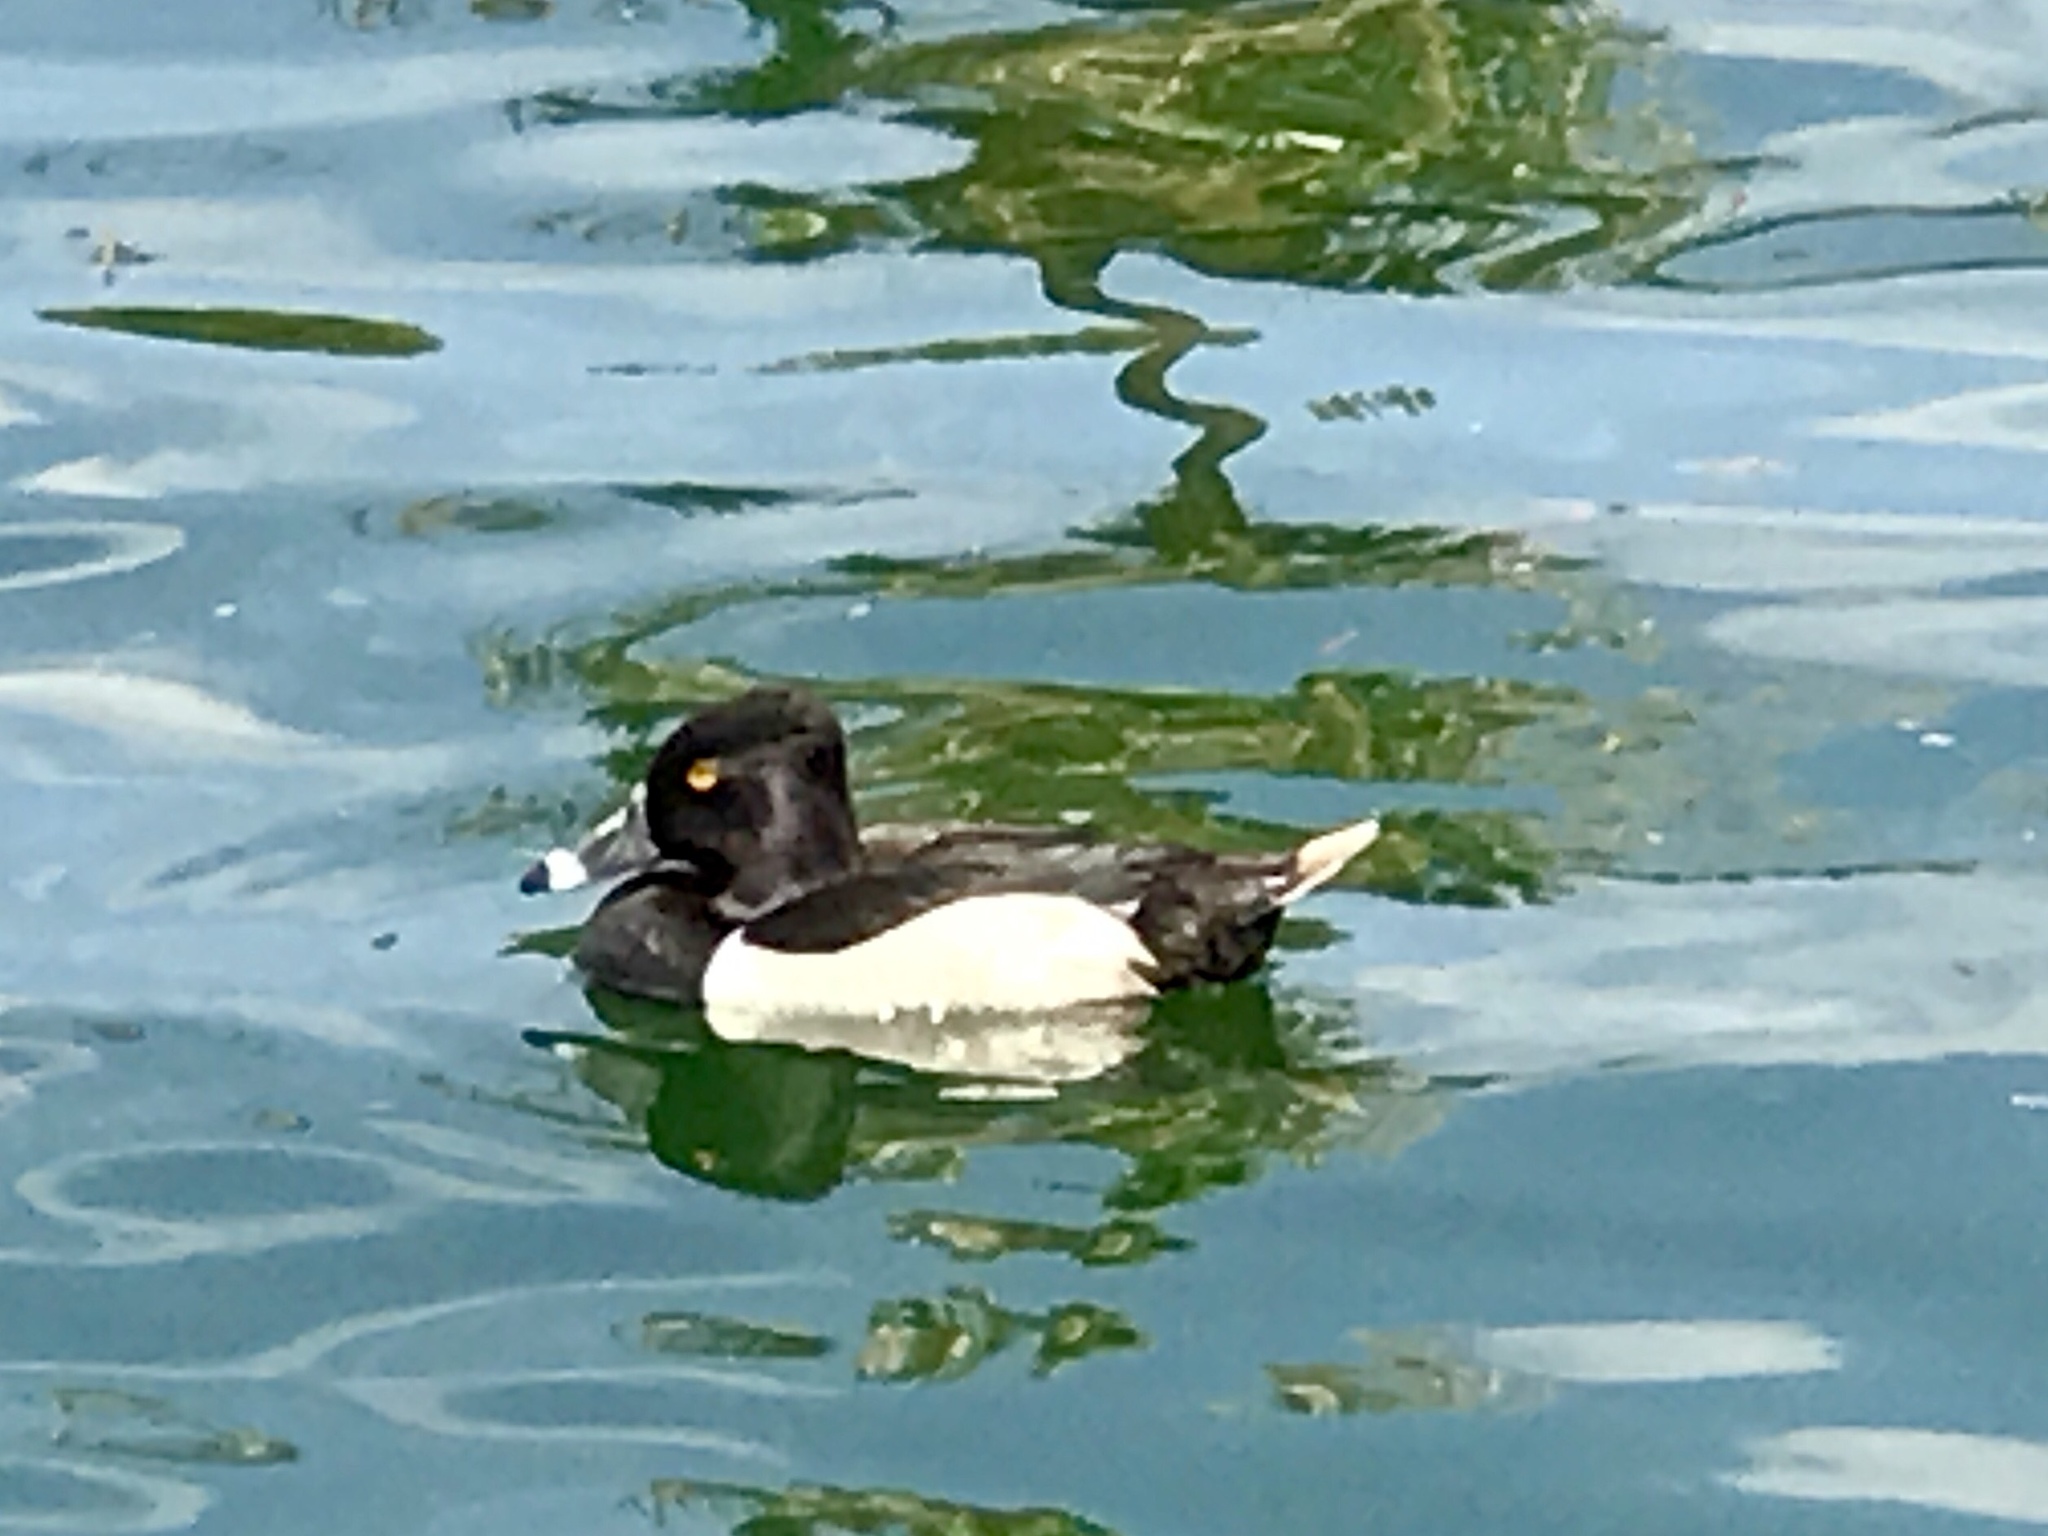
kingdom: Animalia
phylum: Chordata
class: Aves
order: Anseriformes
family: Anatidae
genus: Aythya
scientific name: Aythya collaris
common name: Ring-necked duck
